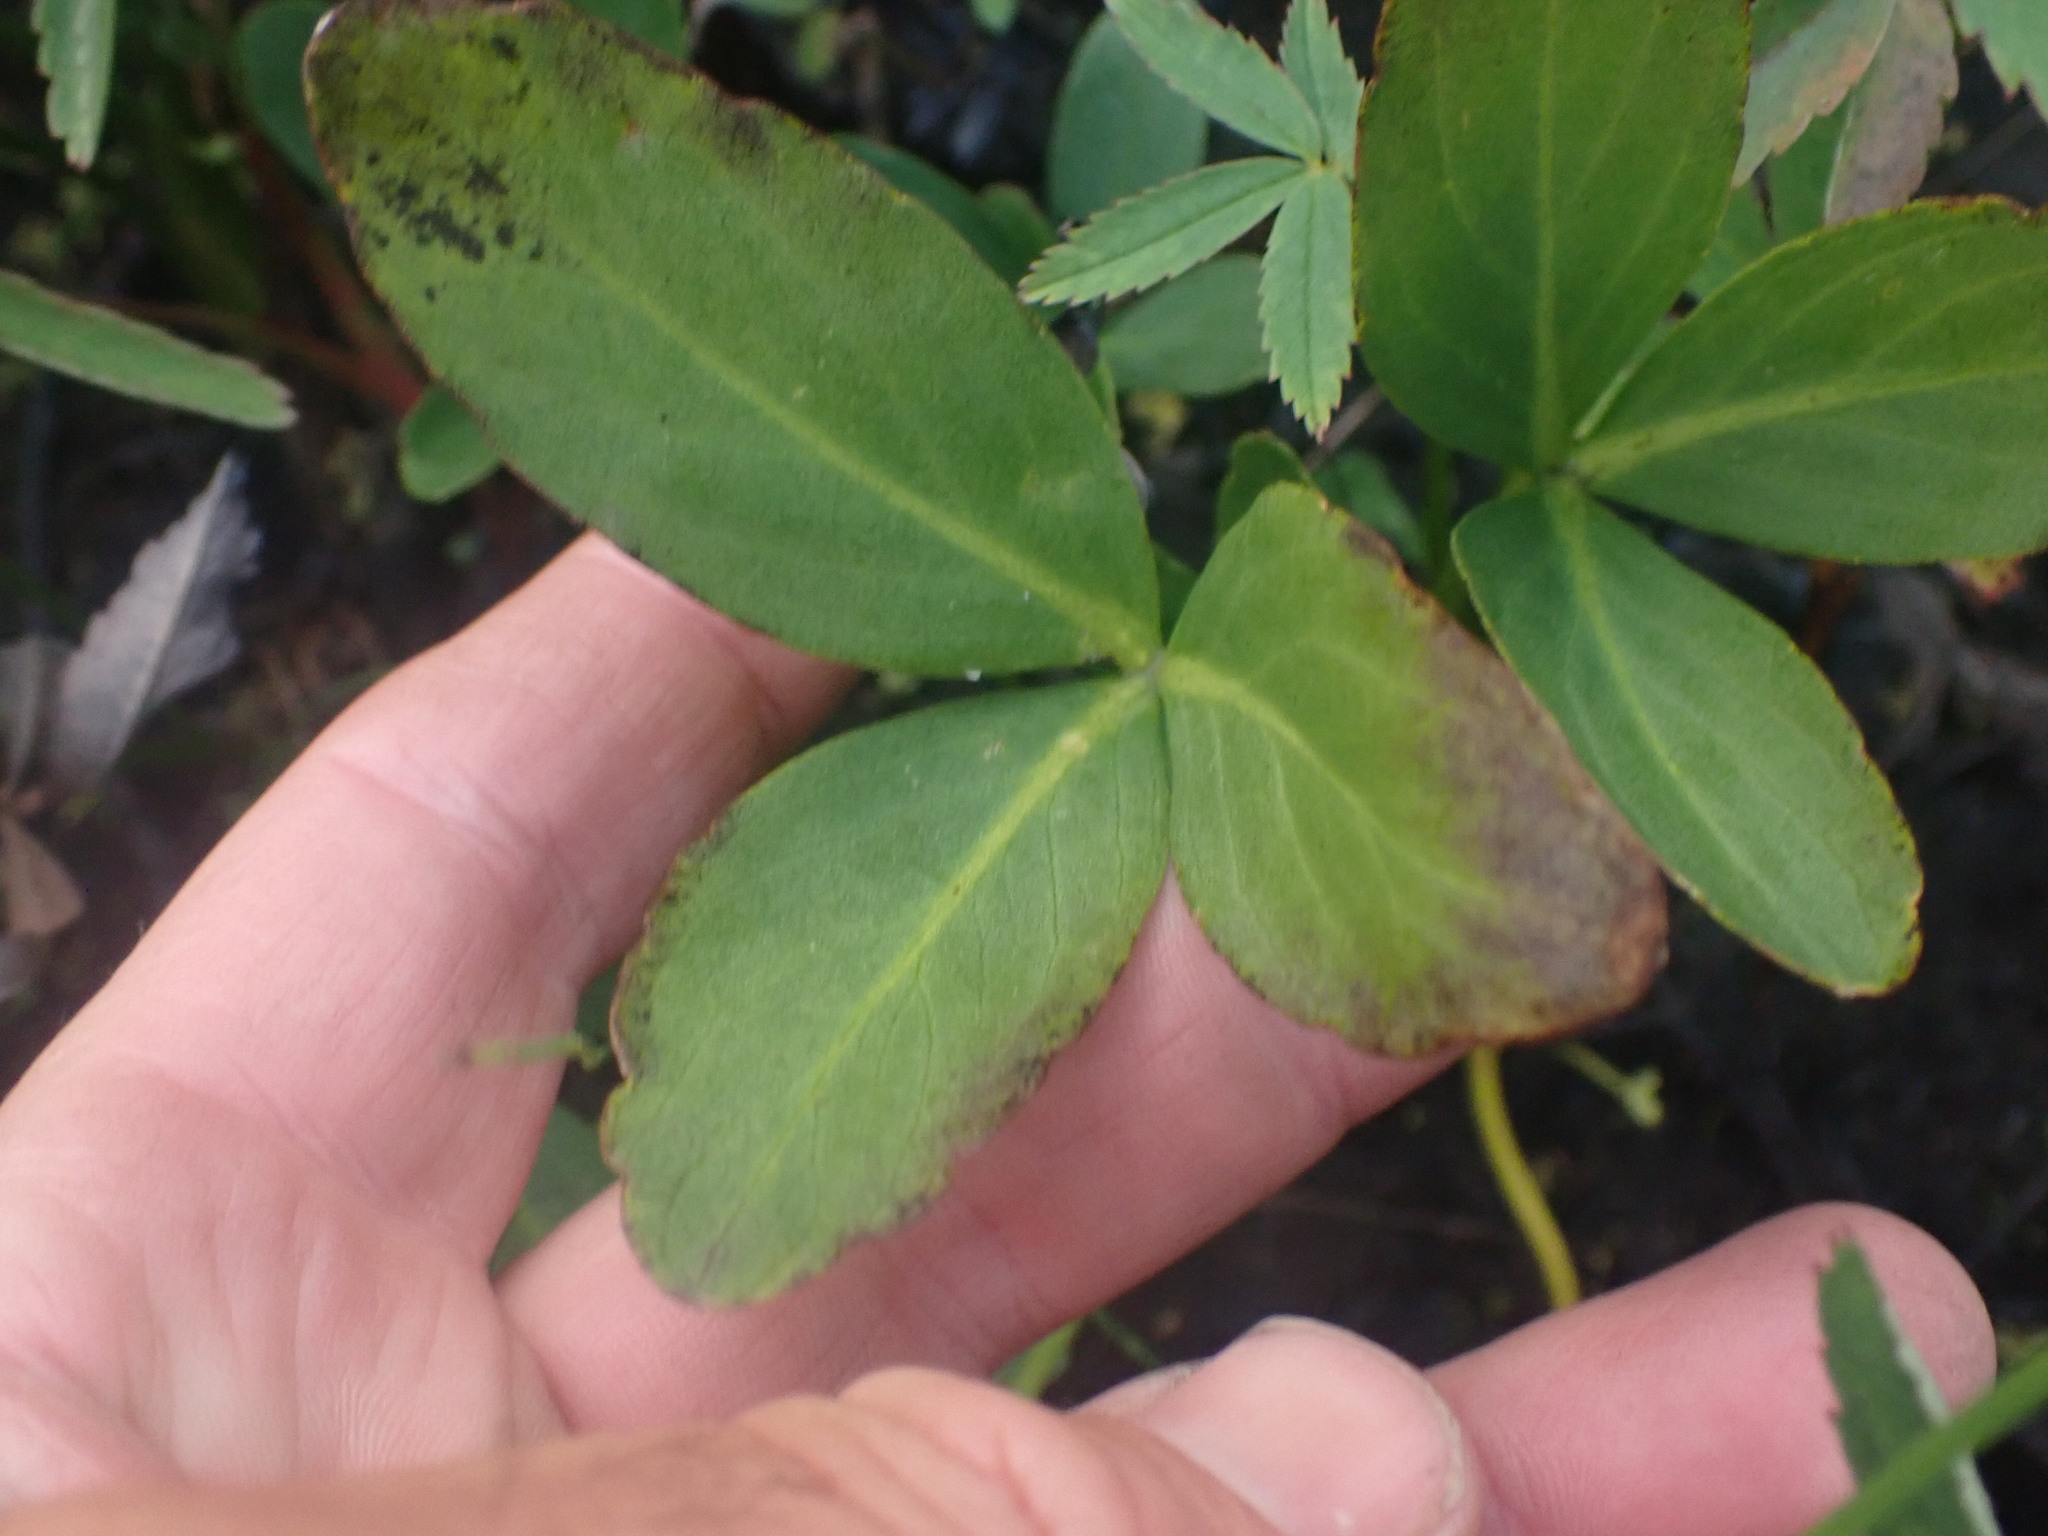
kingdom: Plantae
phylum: Tracheophyta
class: Magnoliopsida
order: Asterales
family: Menyanthaceae
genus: Menyanthes
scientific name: Menyanthes trifoliata
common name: Bogbean
